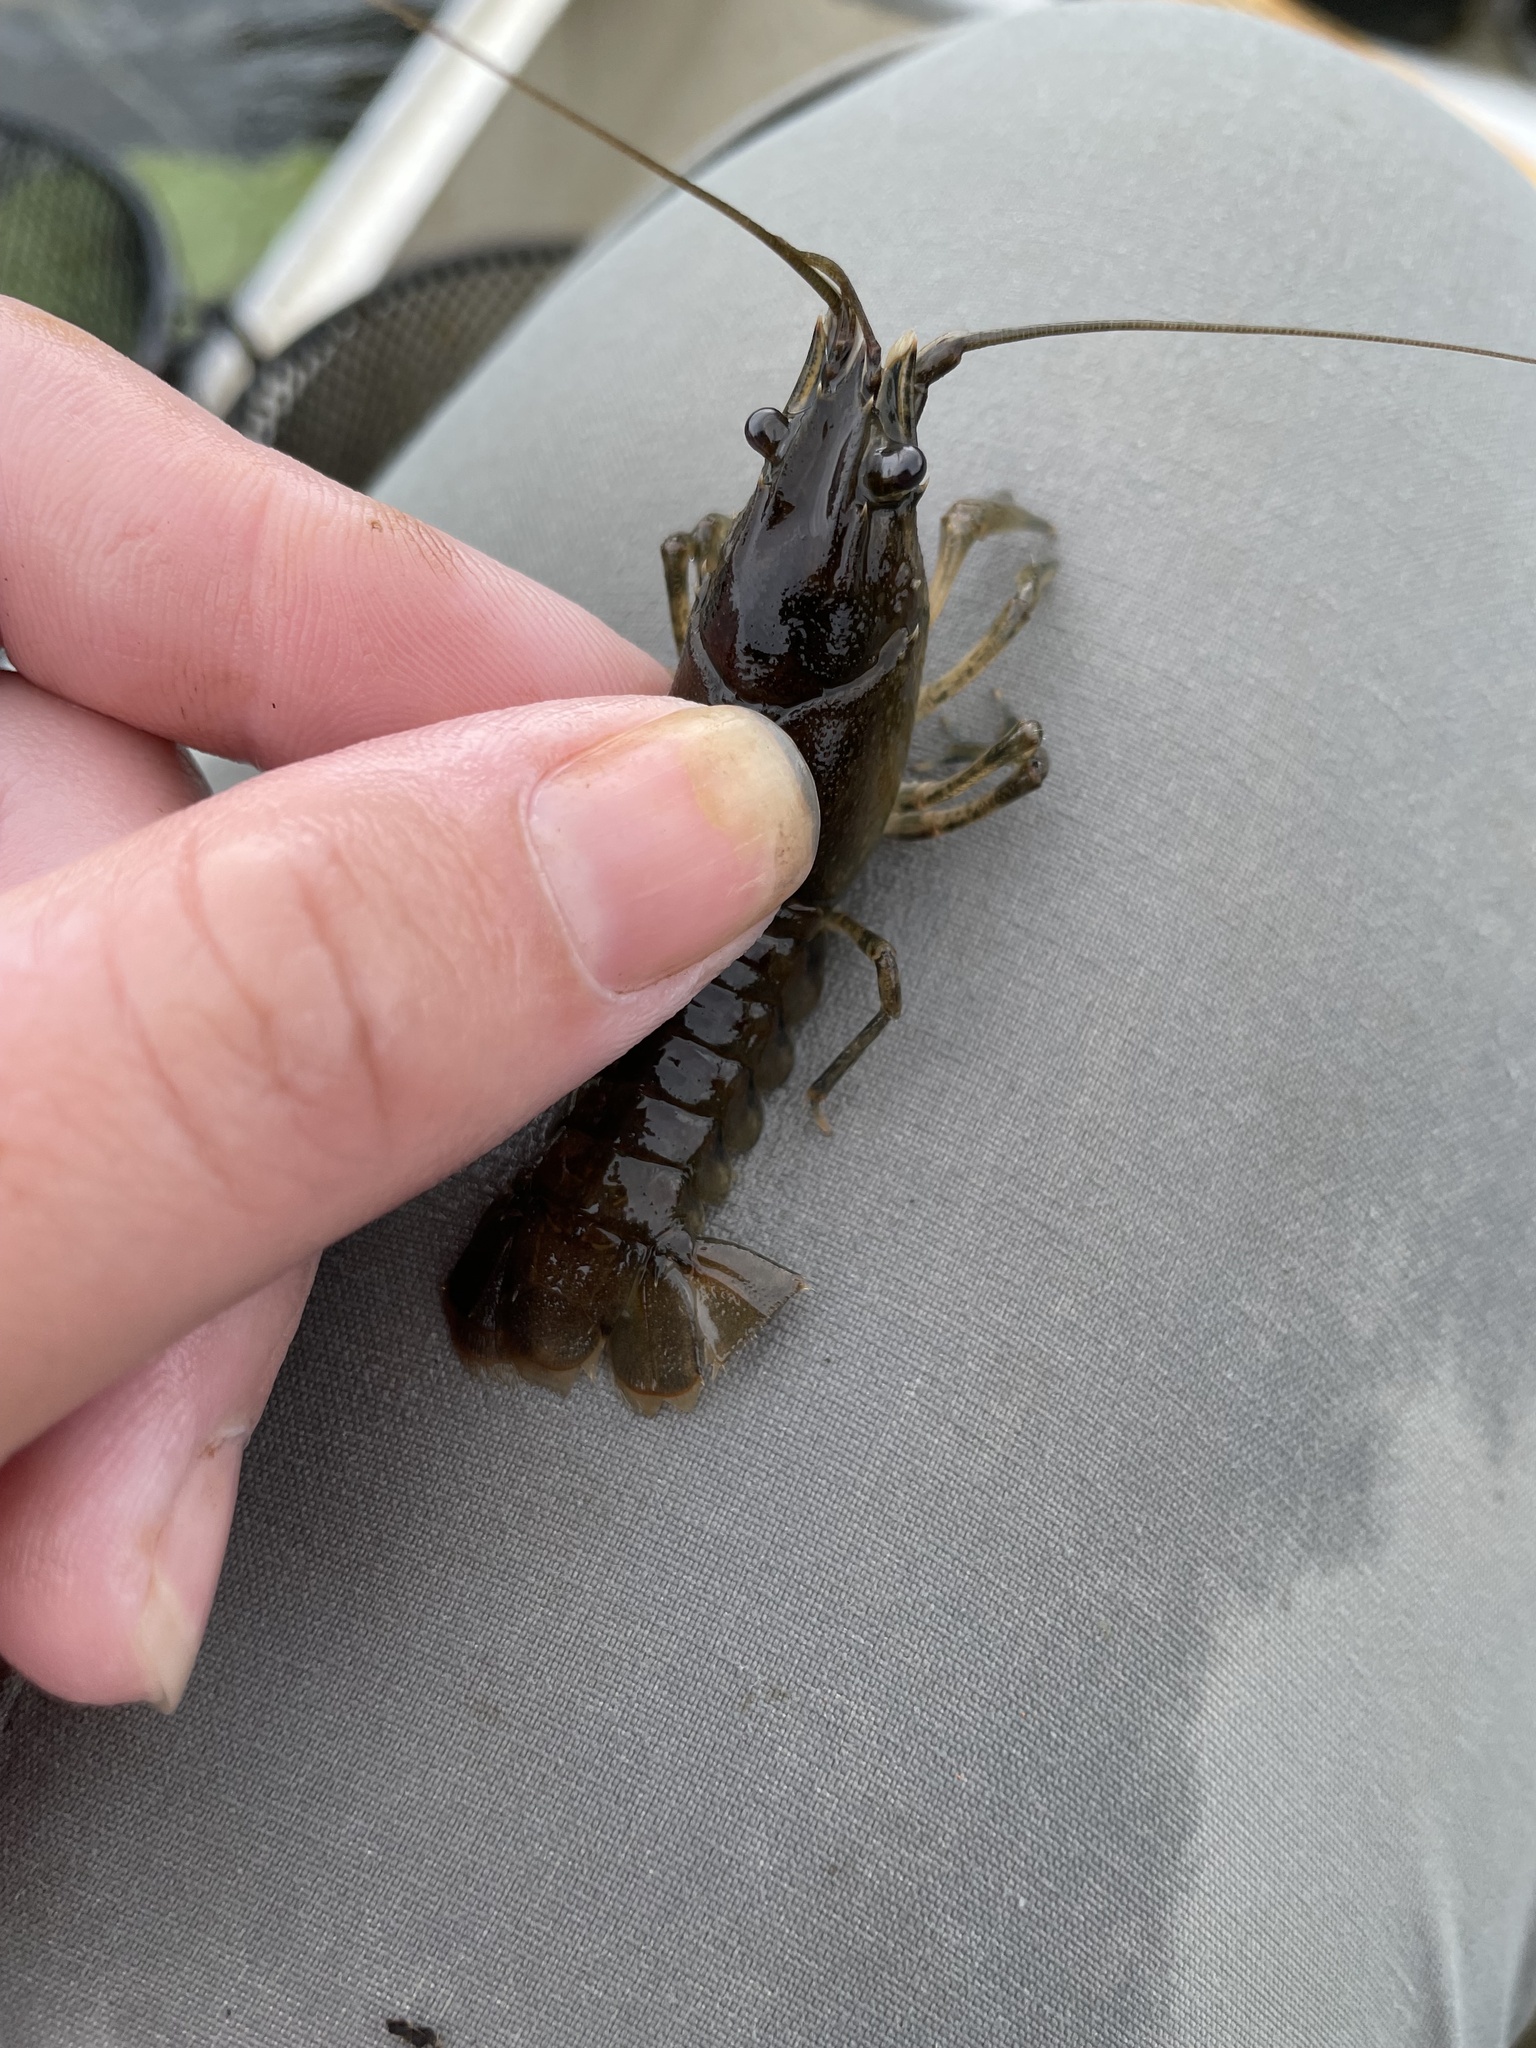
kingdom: Animalia
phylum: Arthropoda
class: Malacostraca
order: Decapoda
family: Cambaridae
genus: Faxonius
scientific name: Faxonius limosus
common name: American crayfish
